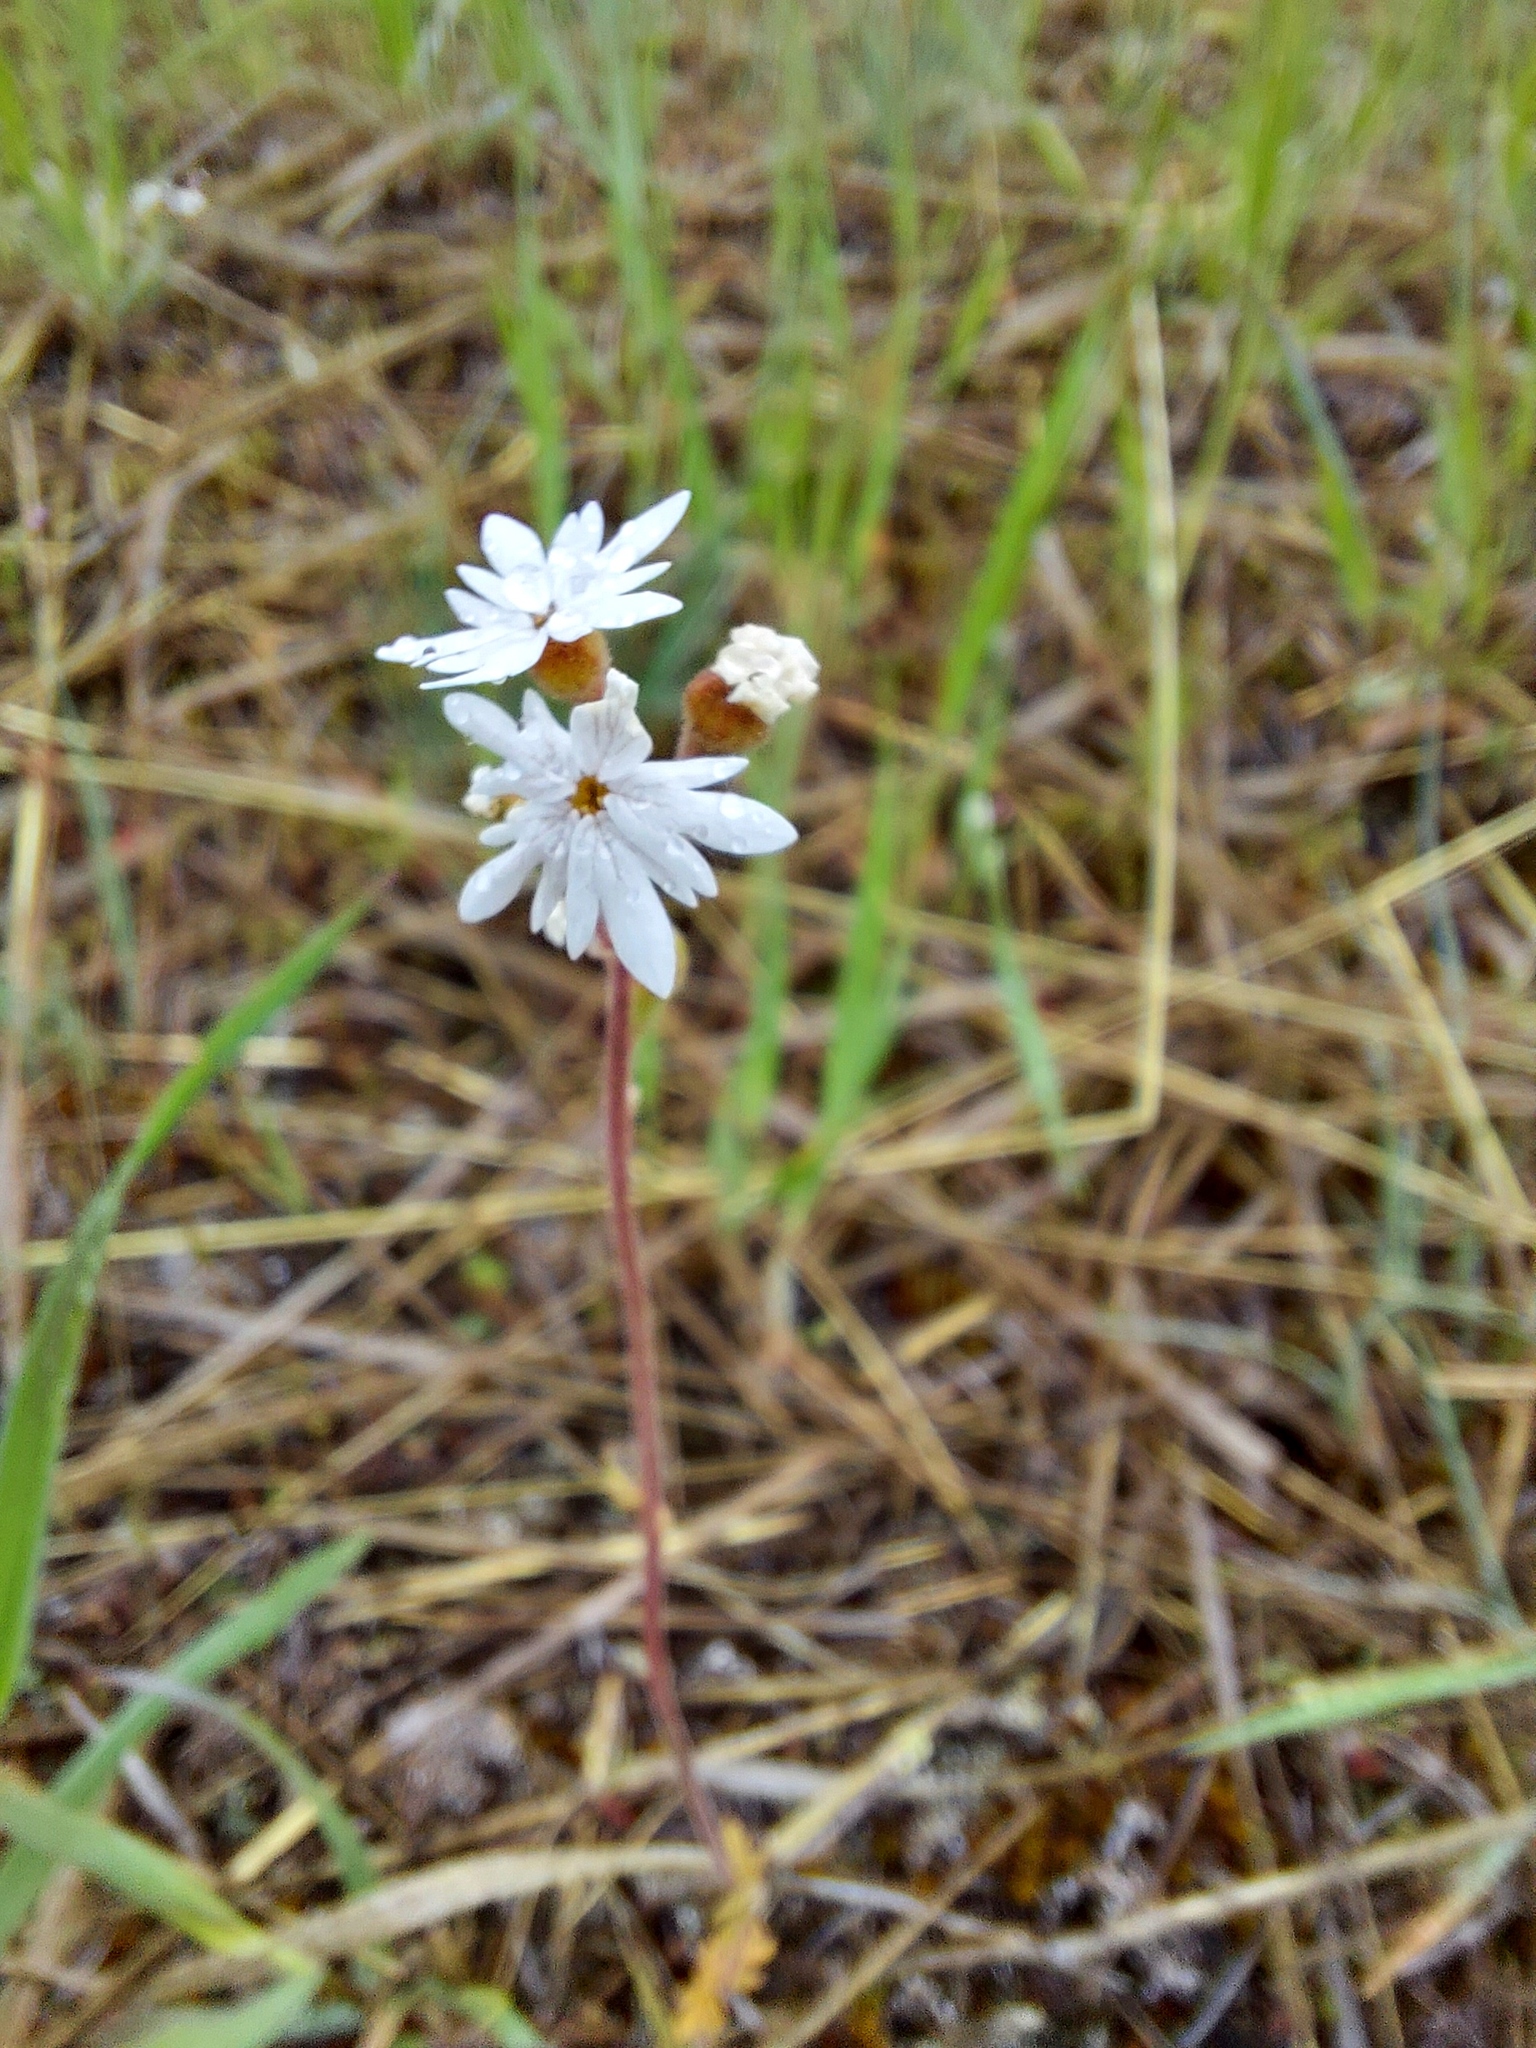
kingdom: Plantae
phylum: Tracheophyta
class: Magnoliopsida
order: Saxifragales
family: Saxifragaceae
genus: Lithophragma
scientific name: Lithophragma parviflorum
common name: Small-flowered fringe-cup
